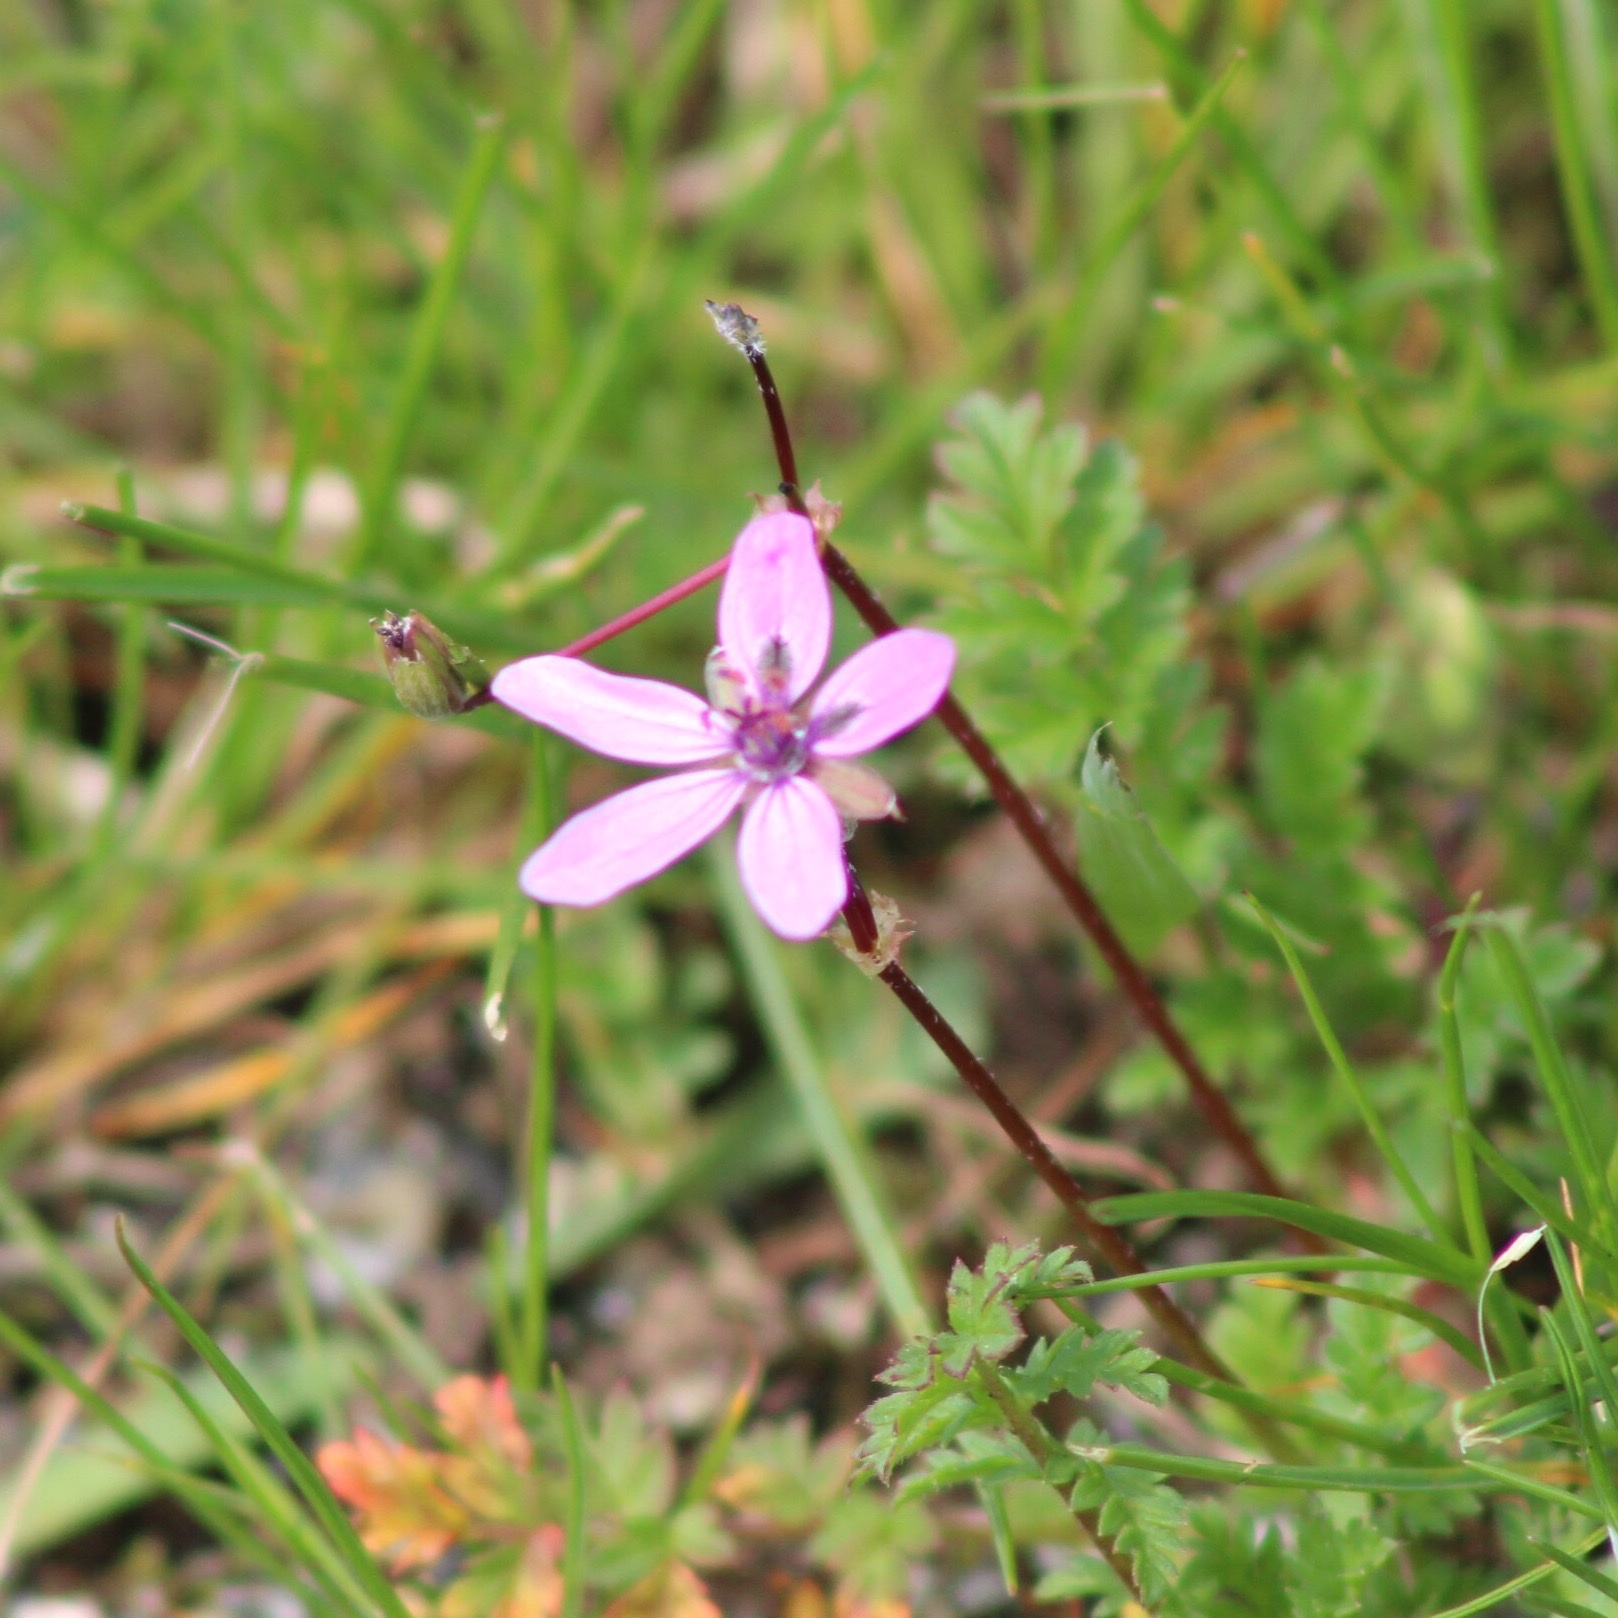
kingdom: Plantae
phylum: Tracheophyta
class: Magnoliopsida
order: Geraniales
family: Geraniaceae
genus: Erodium
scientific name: Erodium cicutarium
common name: Common stork's-bill
